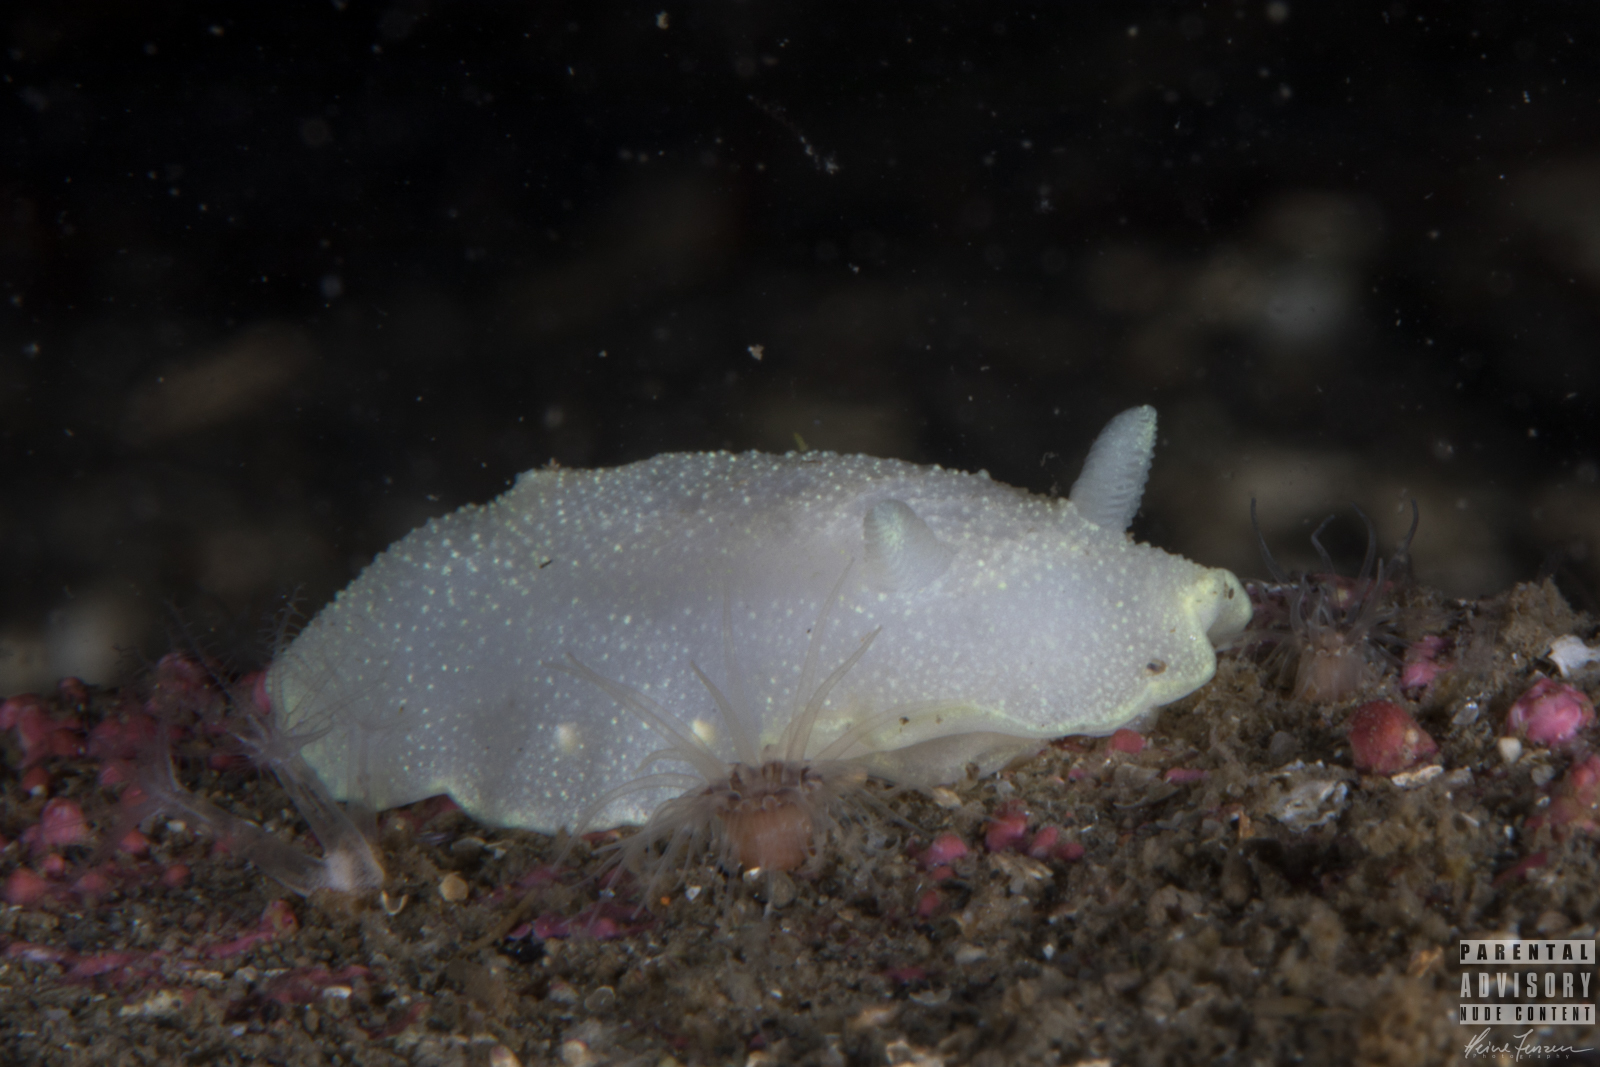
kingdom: Animalia
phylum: Mollusca
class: Gastropoda
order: Nudibranchia
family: Cadlinidae
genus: Cadlina
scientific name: Cadlina laevis
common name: White atlantic cadlina
